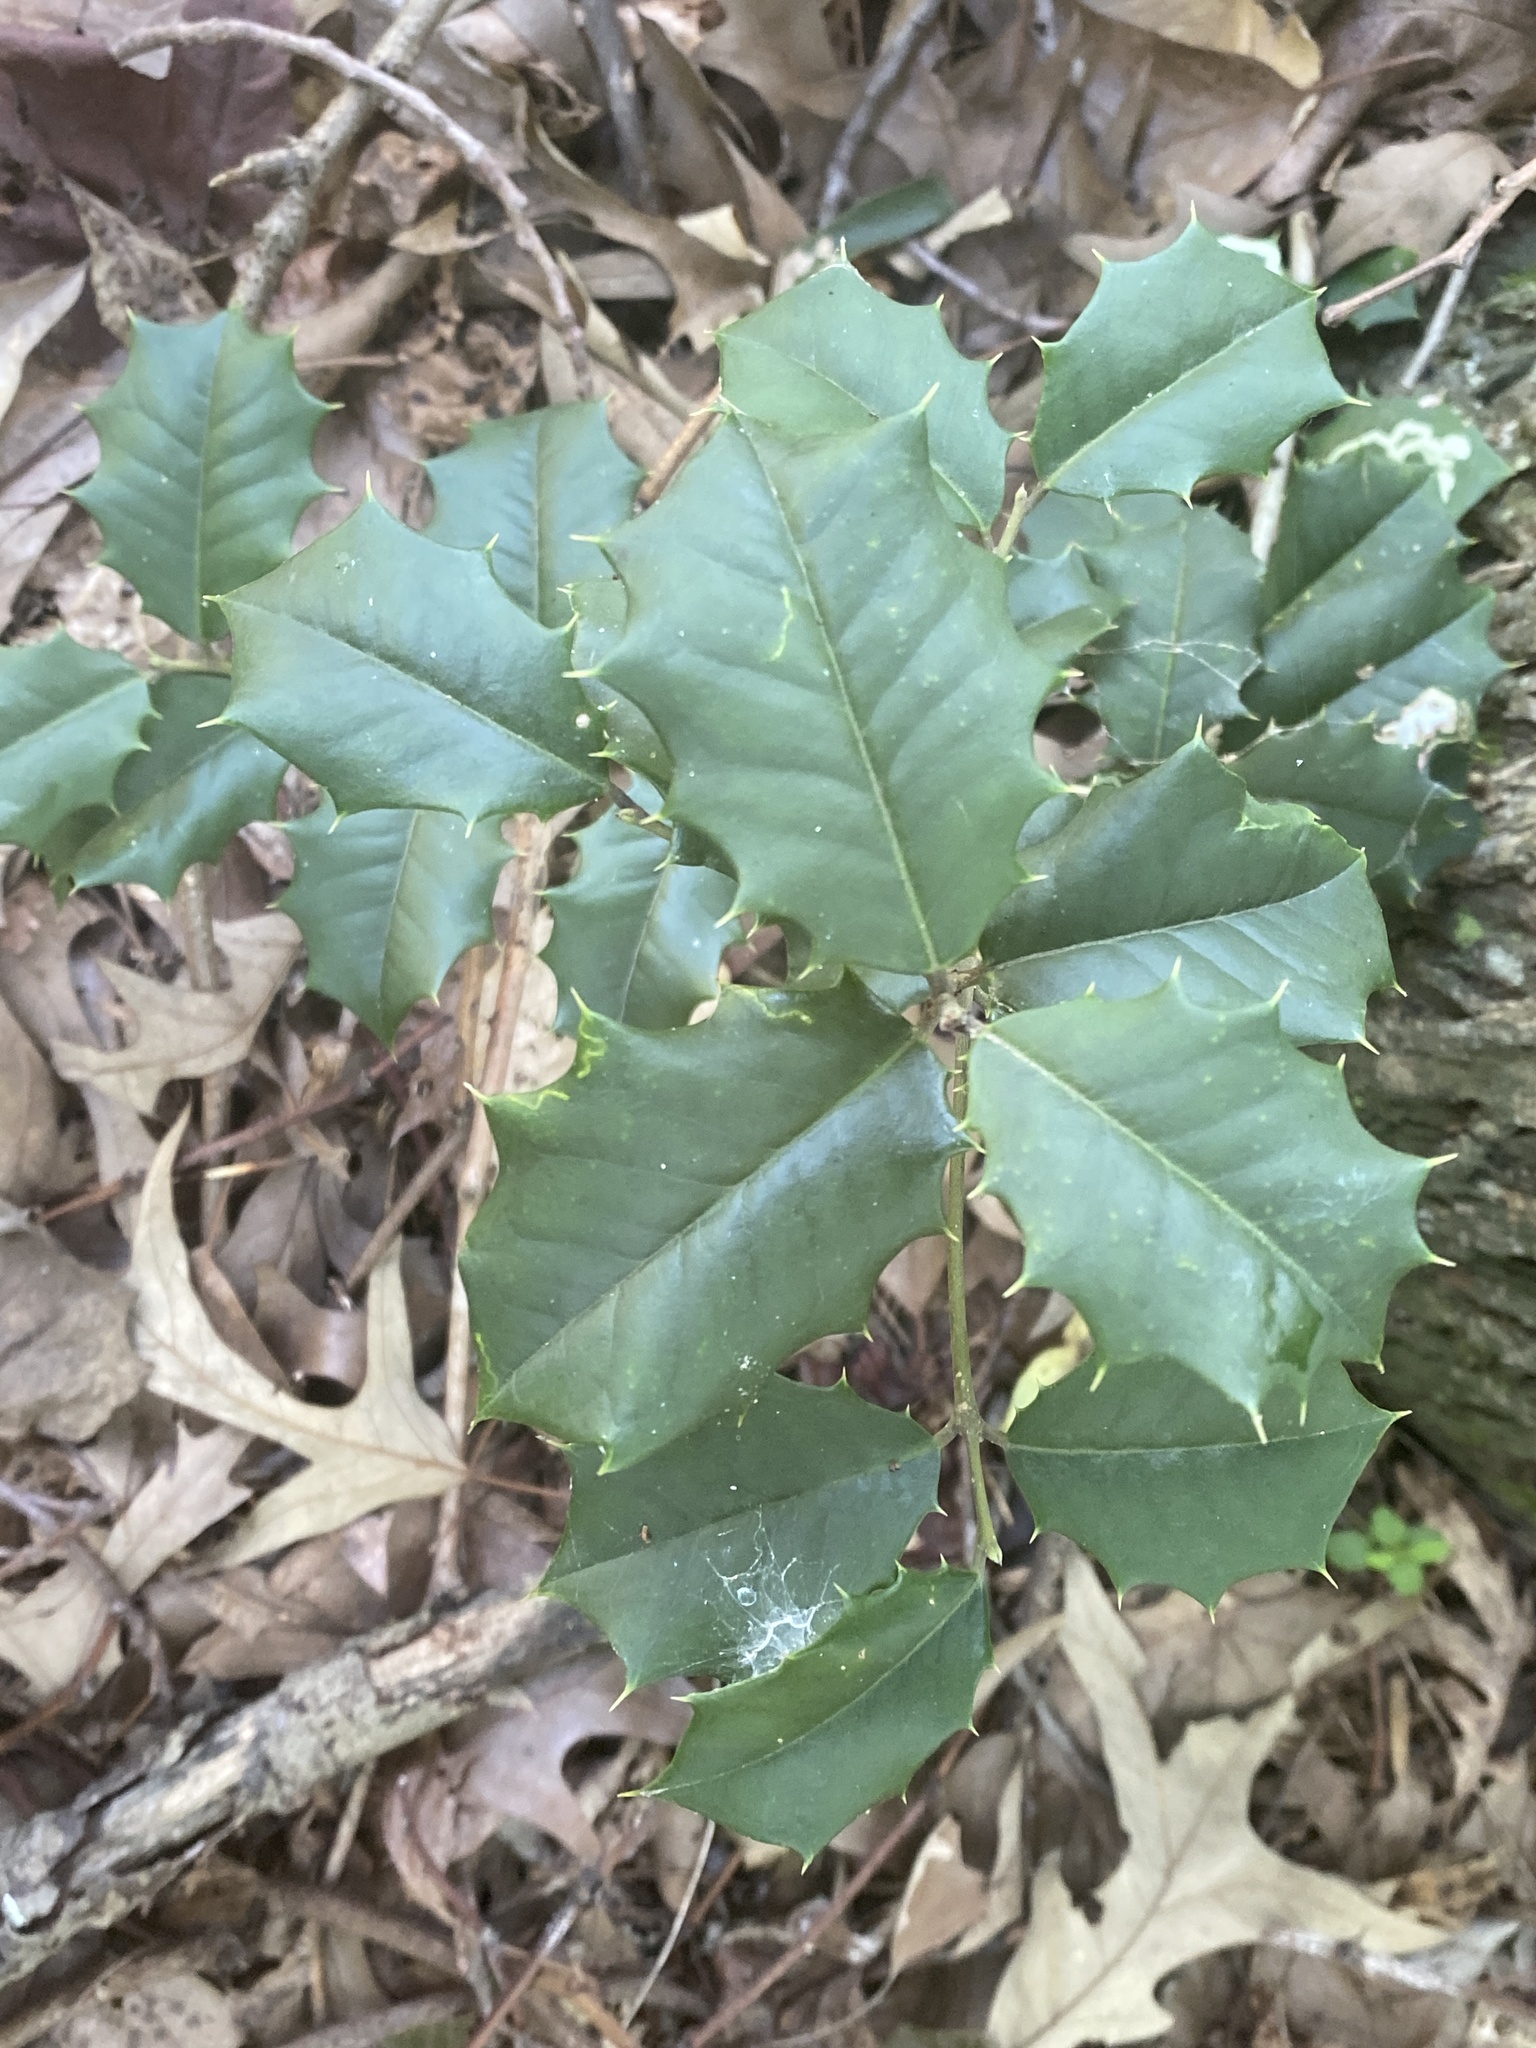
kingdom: Plantae
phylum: Tracheophyta
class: Magnoliopsida
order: Aquifoliales
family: Aquifoliaceae
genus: Ilex
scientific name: Ilex opaca
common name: American holly
